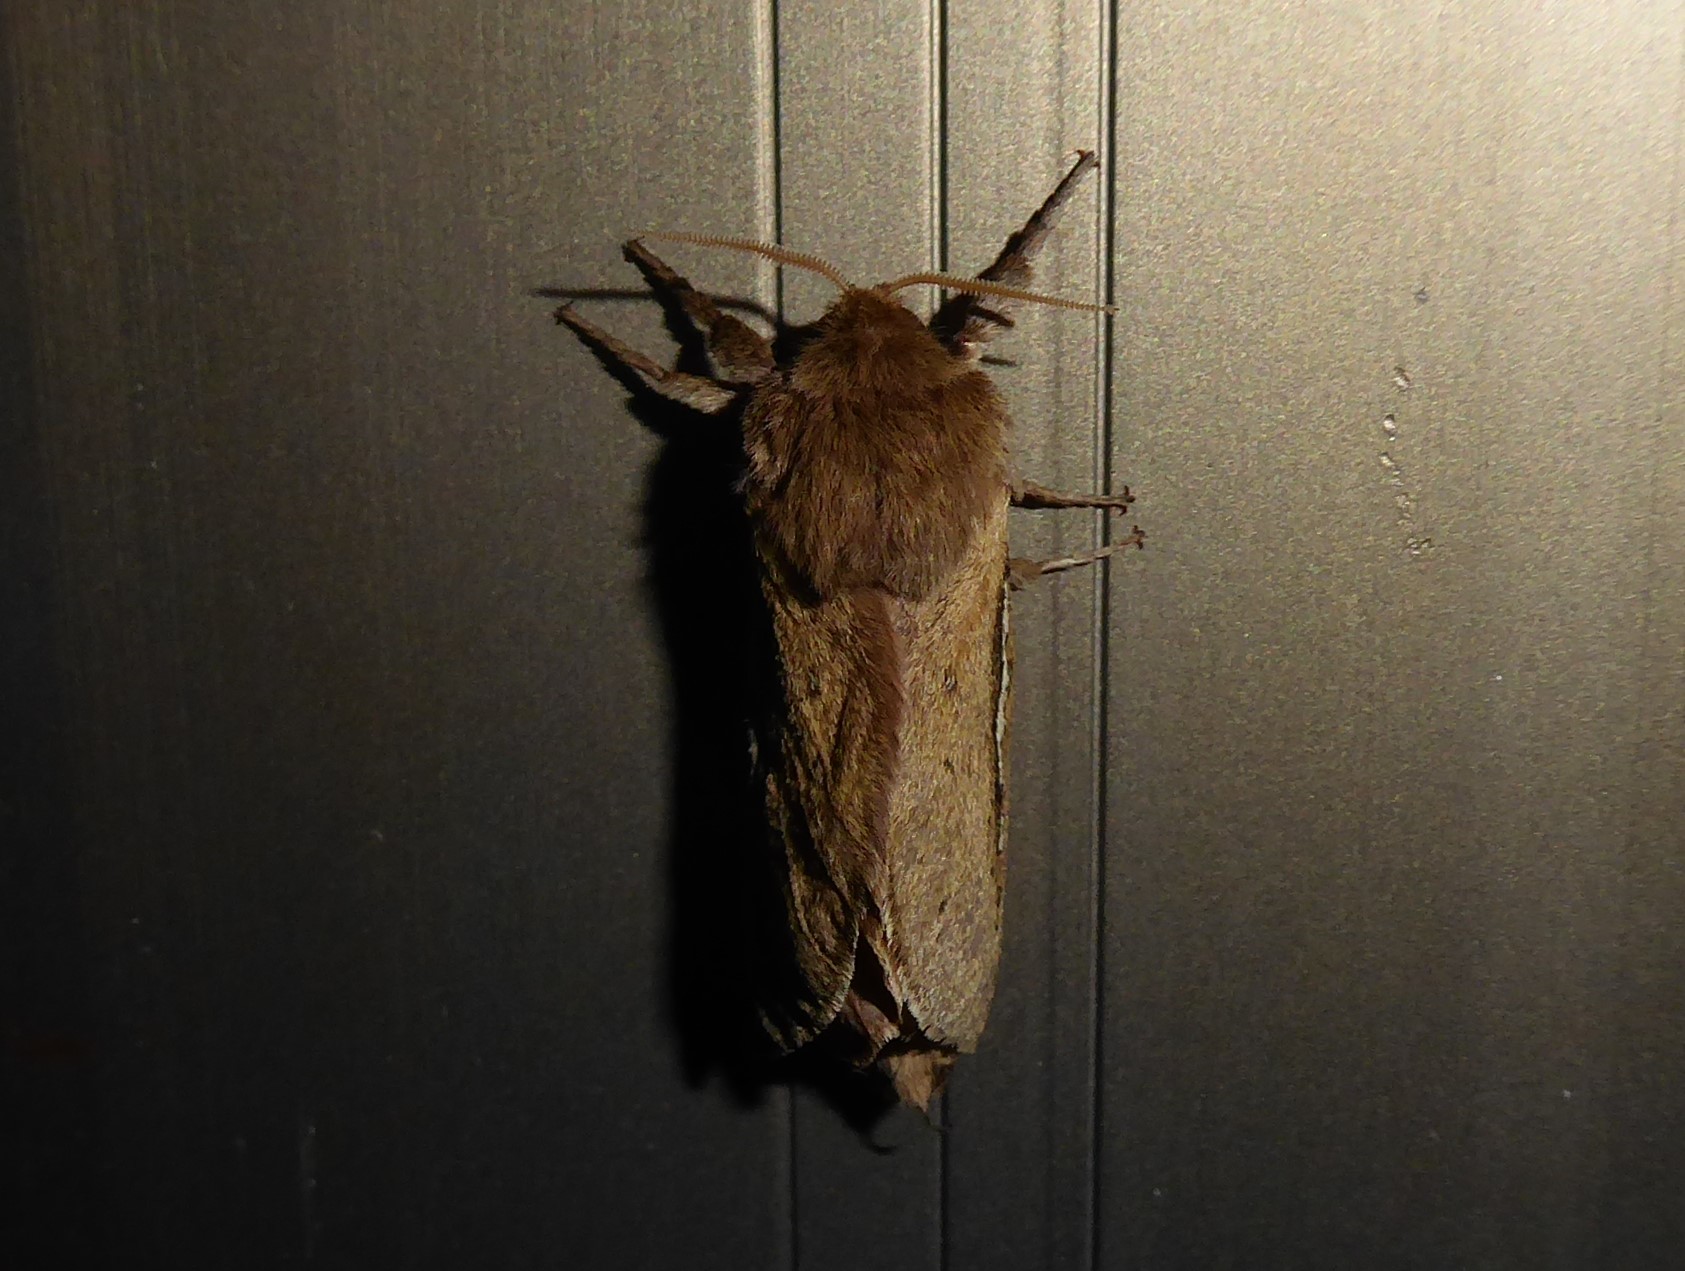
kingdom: Animalia
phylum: Arthropoda
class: Insecta
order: Lepidoptera
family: Hepialidae
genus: Wiseana
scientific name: Wiseana umbraculatus
